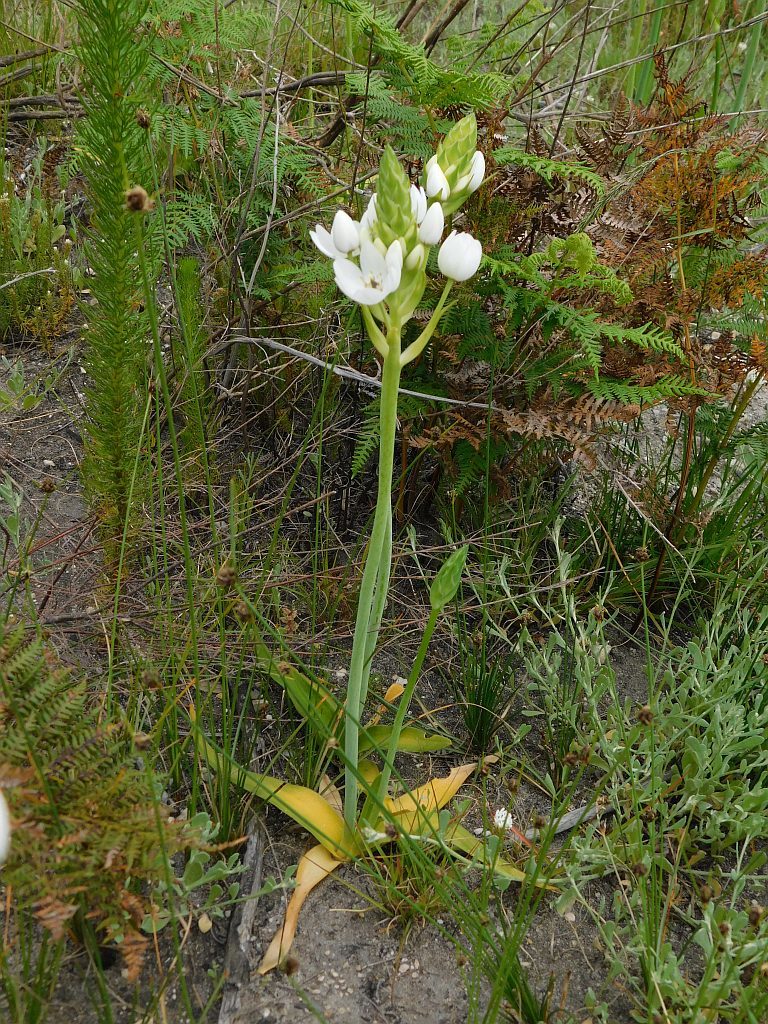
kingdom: Plantae
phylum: Tracheophyta
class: Liliopsida
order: Asparagales
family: Asparagaceae
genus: Ornithogalum
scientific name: Ornithogalum thyrsoides
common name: Chincherinchee
